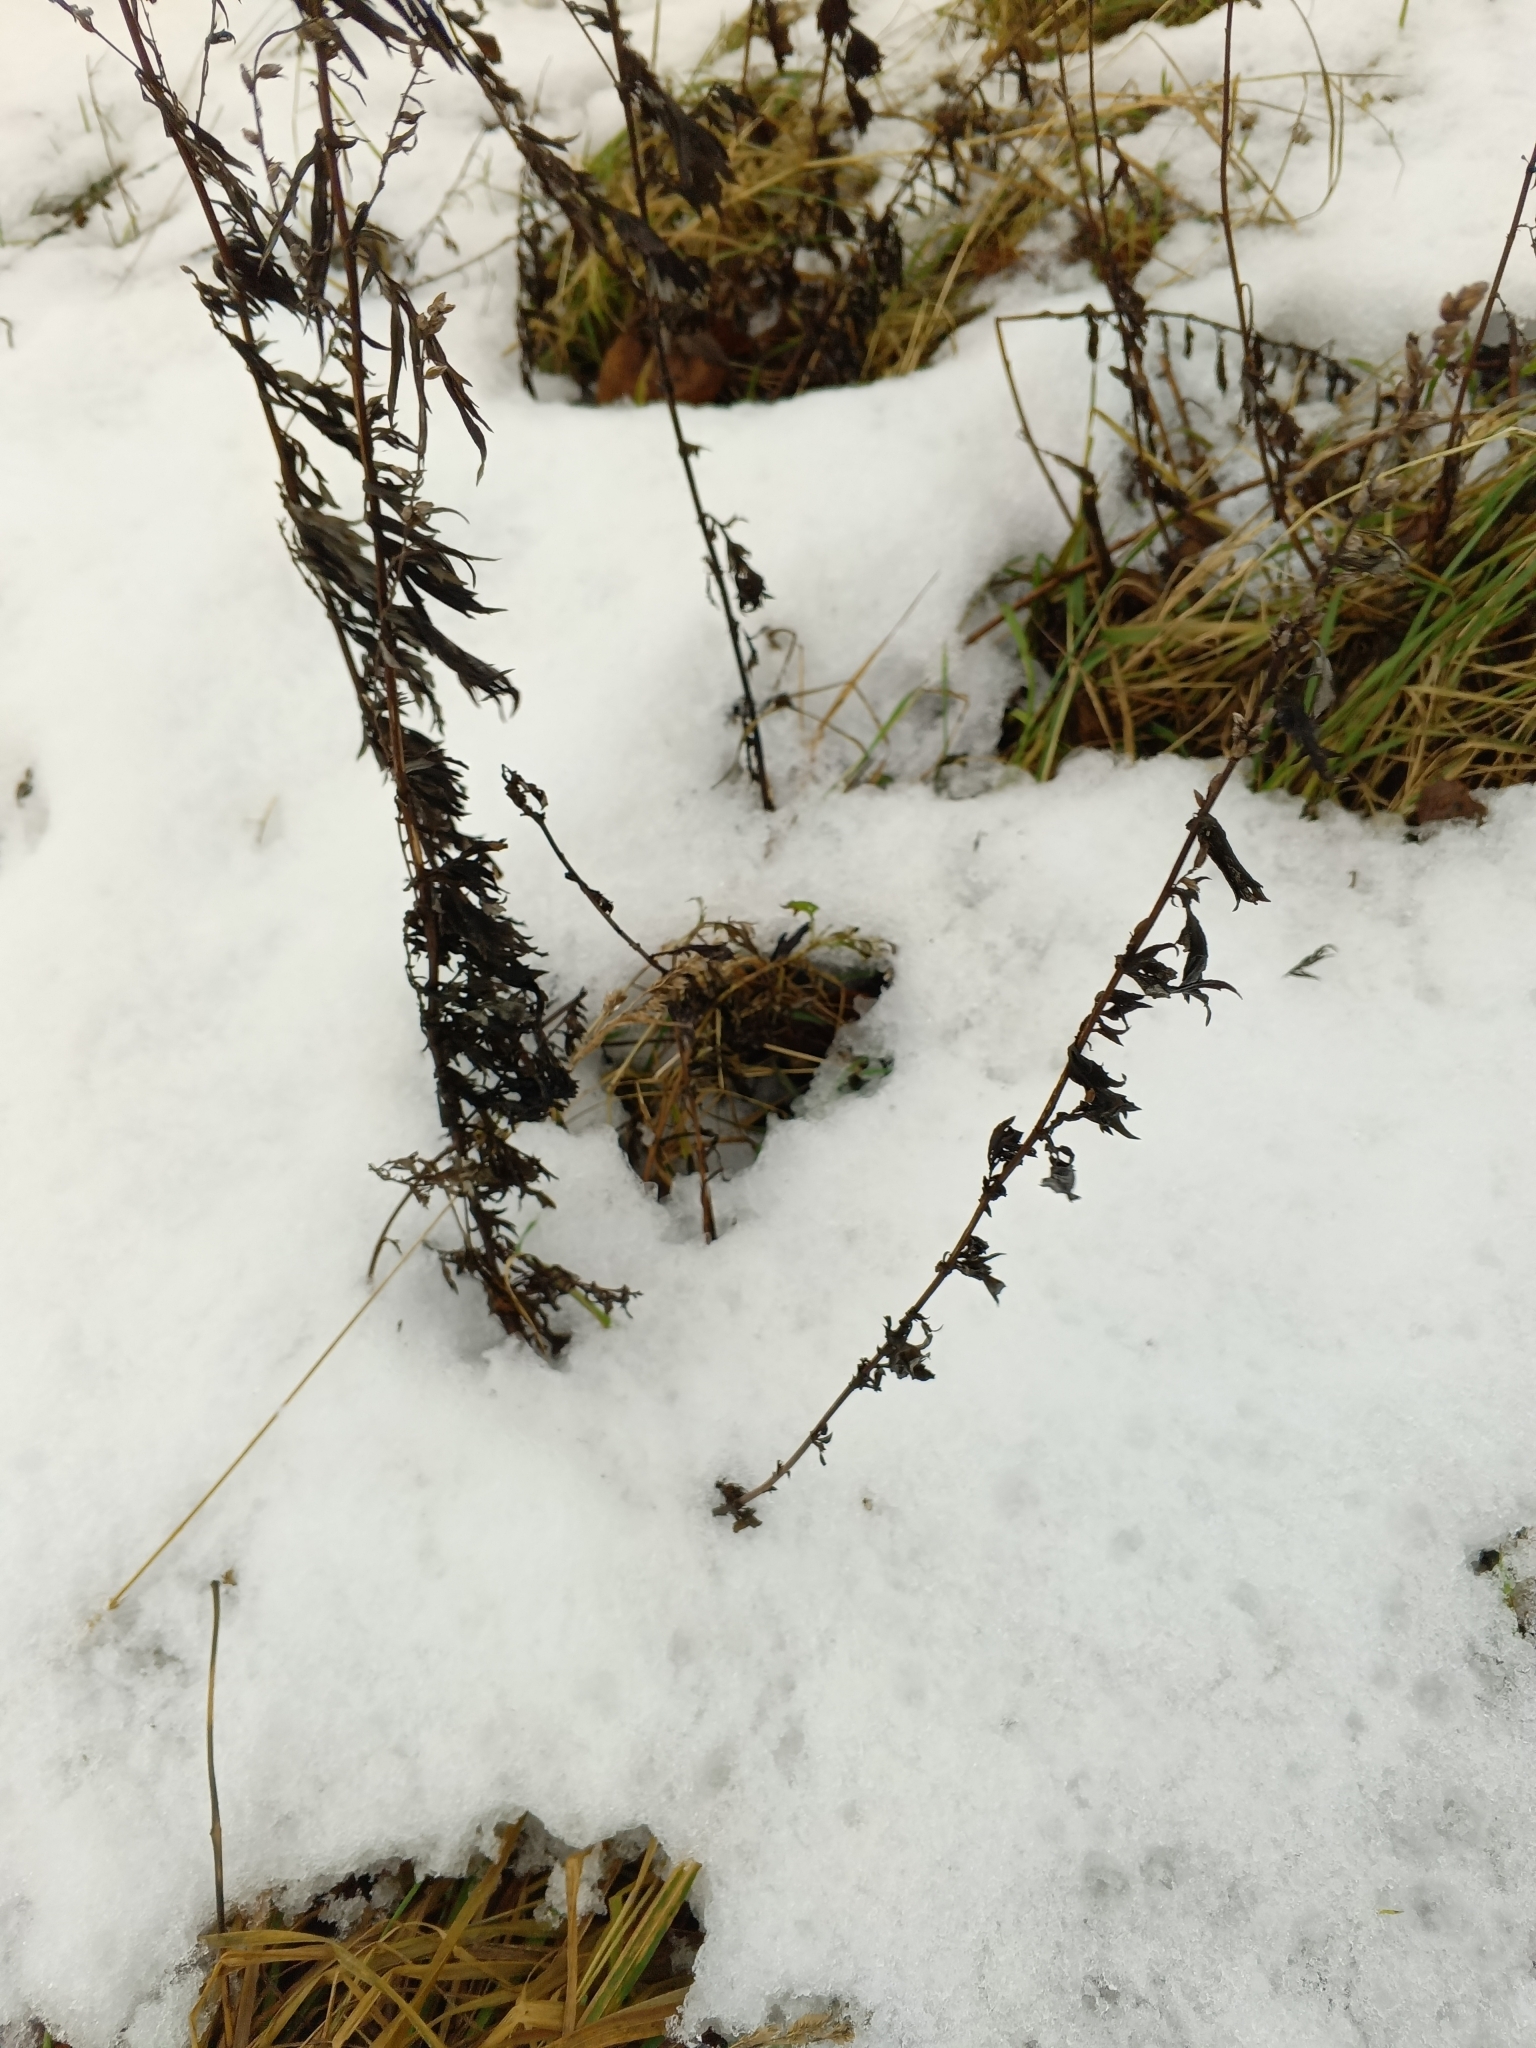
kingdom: Plantae
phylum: Tracheophyta
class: Magnoliopsida
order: Asterales
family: Asteraceae
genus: Artemisia
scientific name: Artemisia vulgaris
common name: Mugwort
